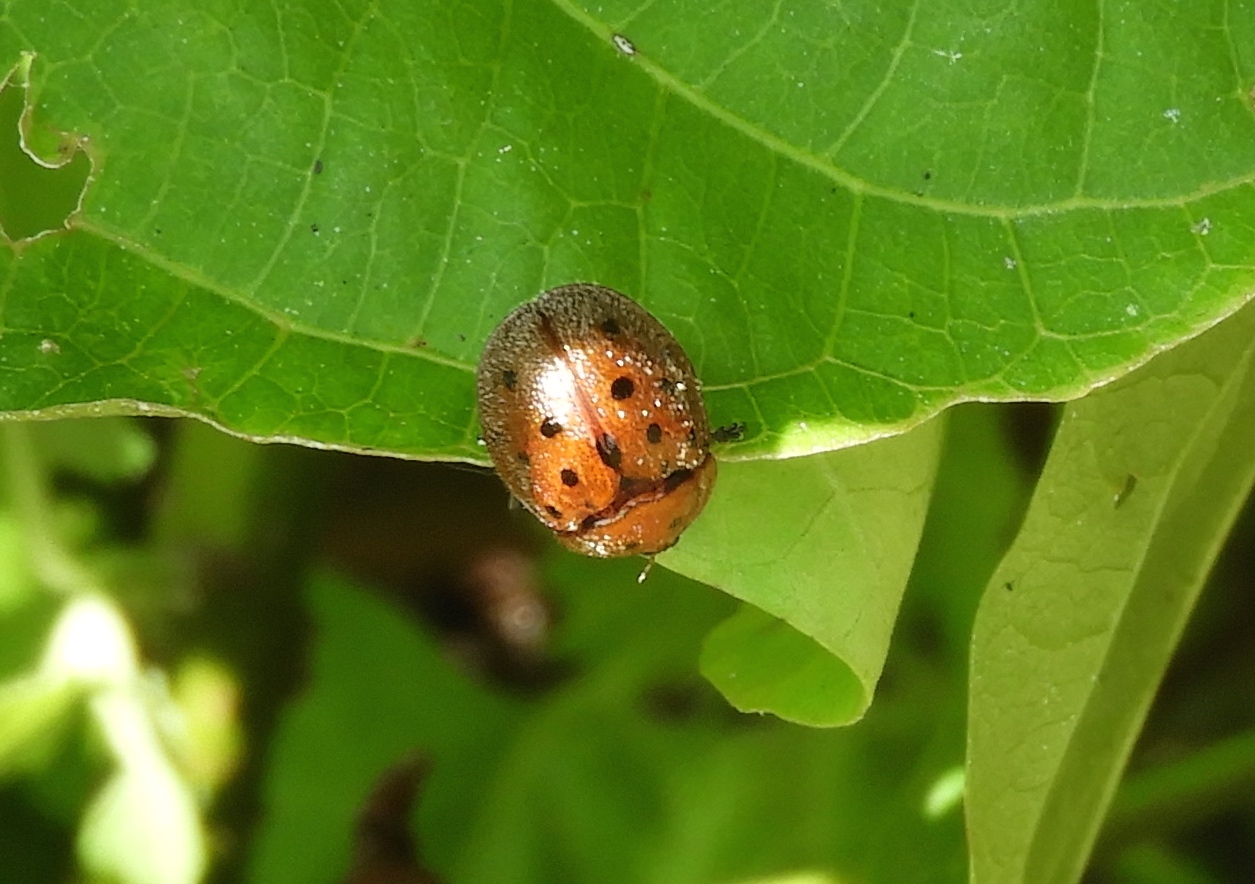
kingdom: Animalia
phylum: Arthropoda
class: Insecta
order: Coleoptera
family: Chrysomelidae
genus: Chelymorpha
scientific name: Chelymorpha
